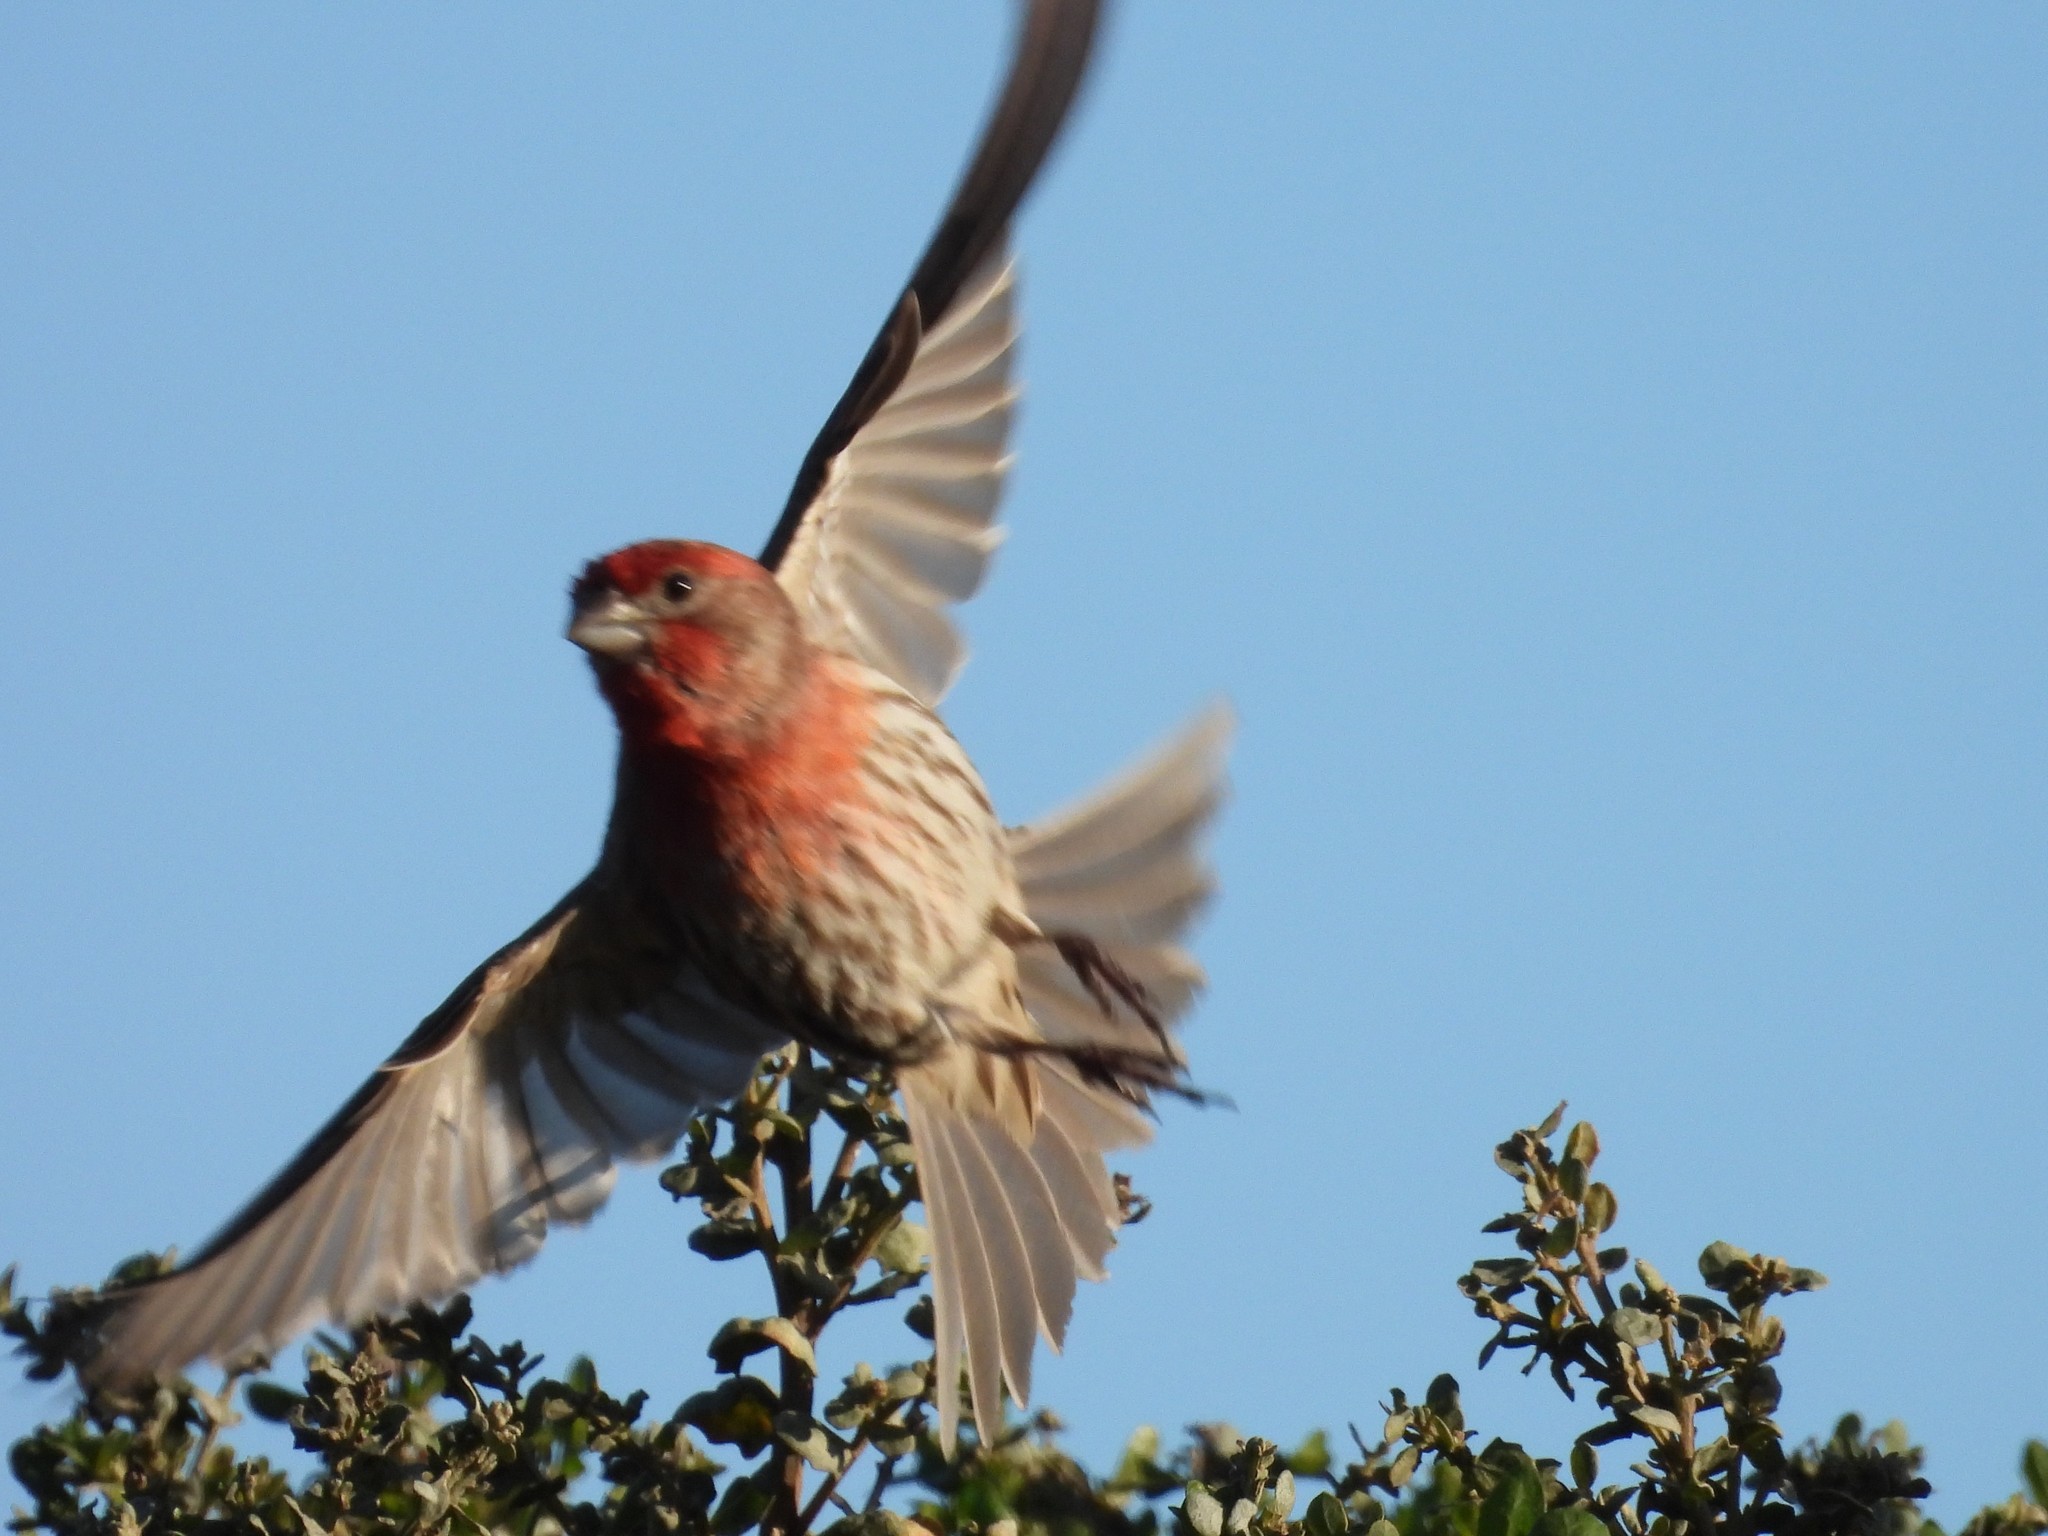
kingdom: Animalia
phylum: Chordata
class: Aves
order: Passeriformes
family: Fringillidae
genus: Haemorhous
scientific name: Haemorhous mexicanus
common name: House finch
